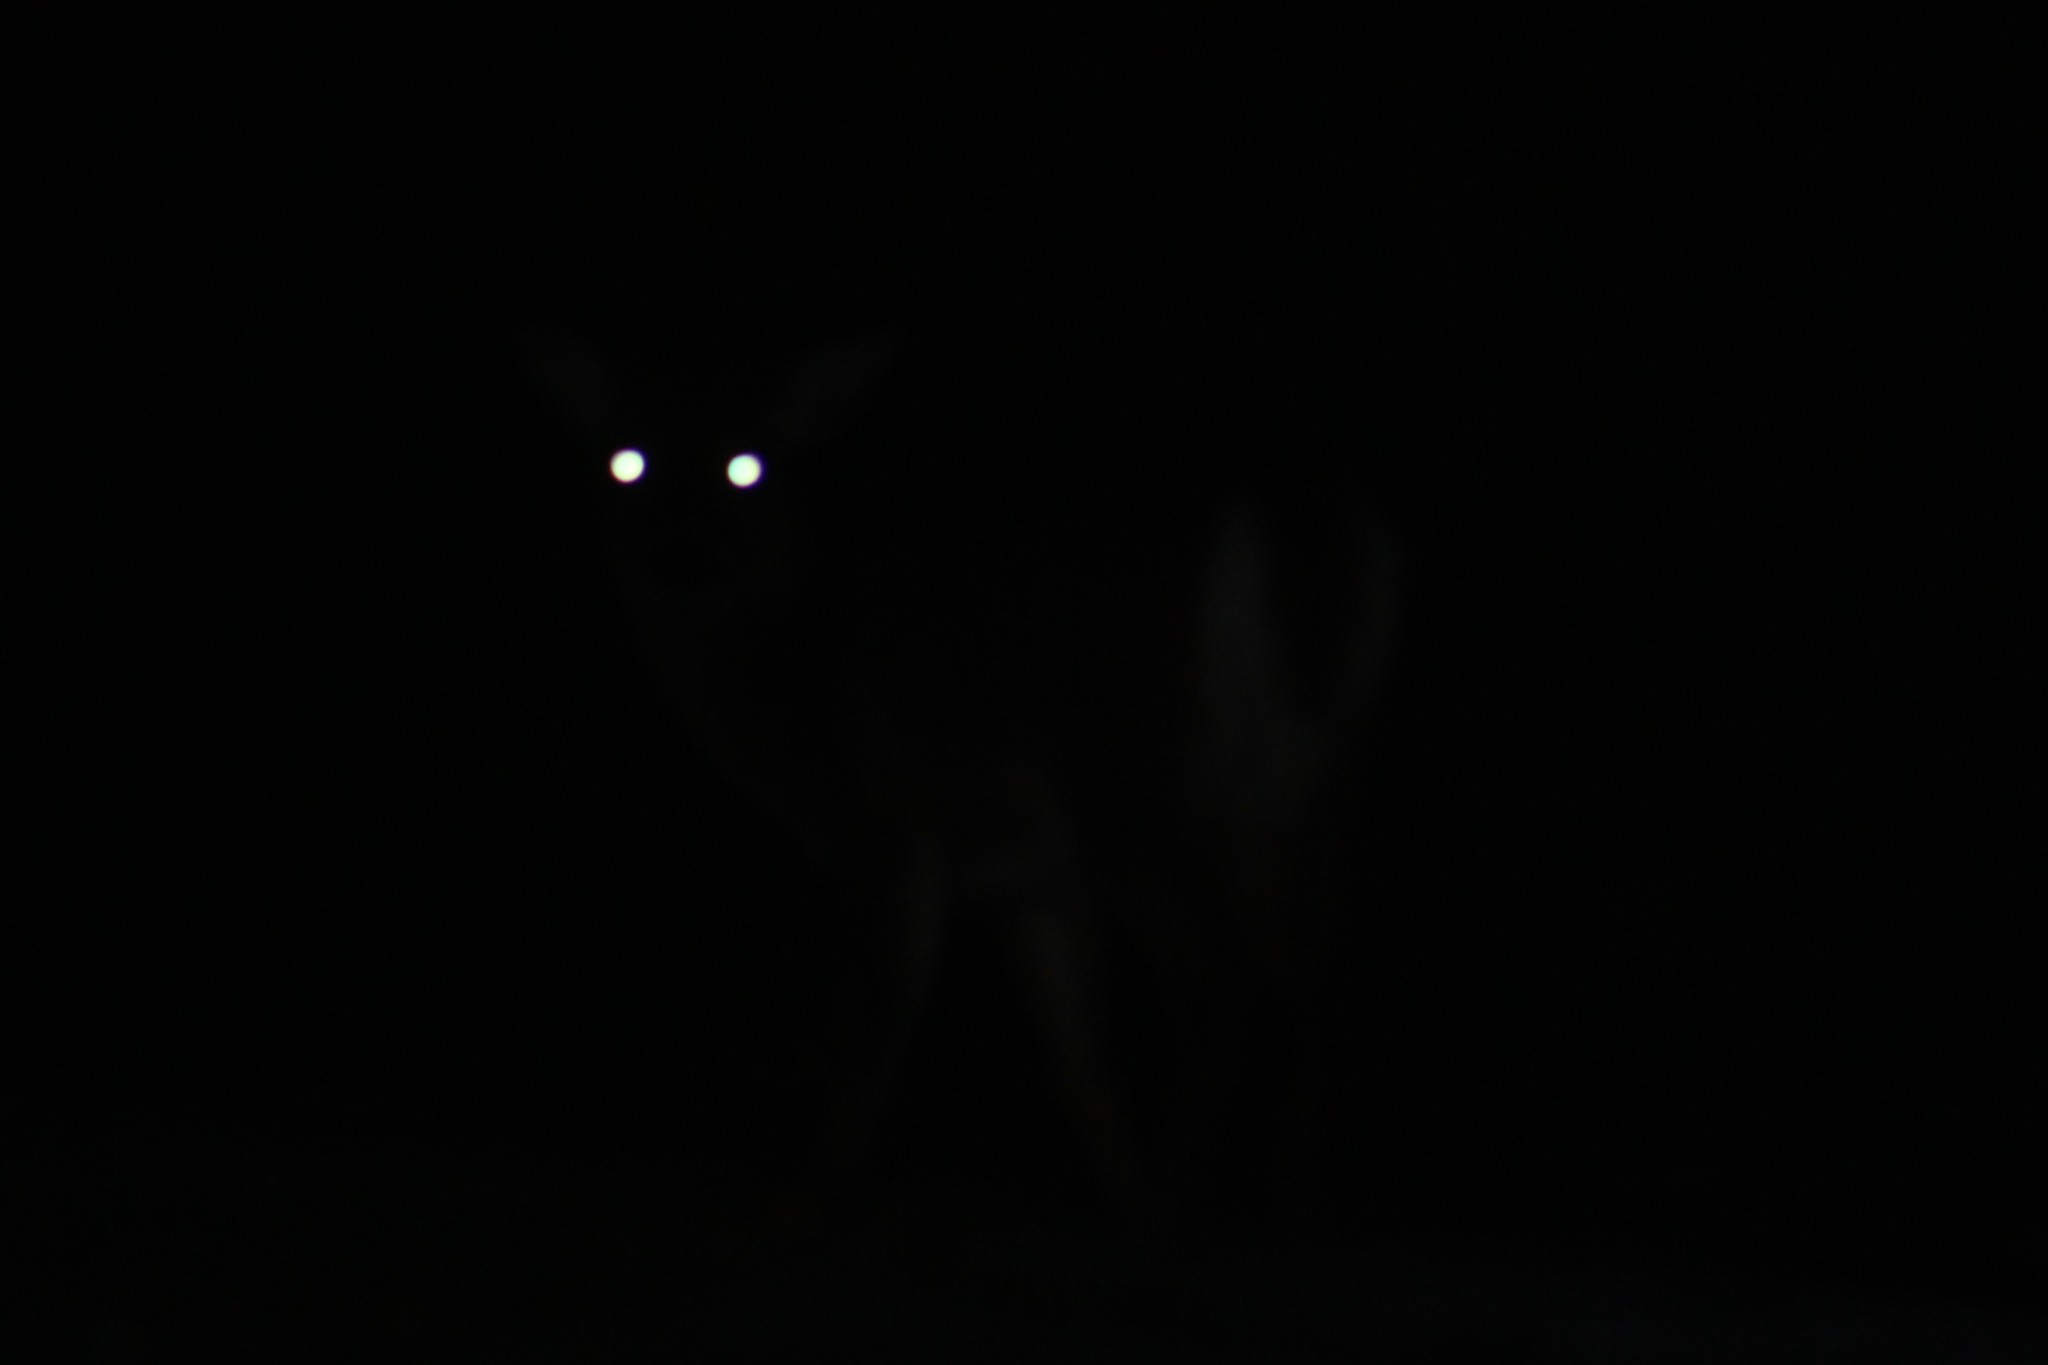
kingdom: Animalia
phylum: Chordata
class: Mammalia
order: Artiodactyla
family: Cervidae
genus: Odocoileus
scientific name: Odocoileus virginianus
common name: White-tailed deer
